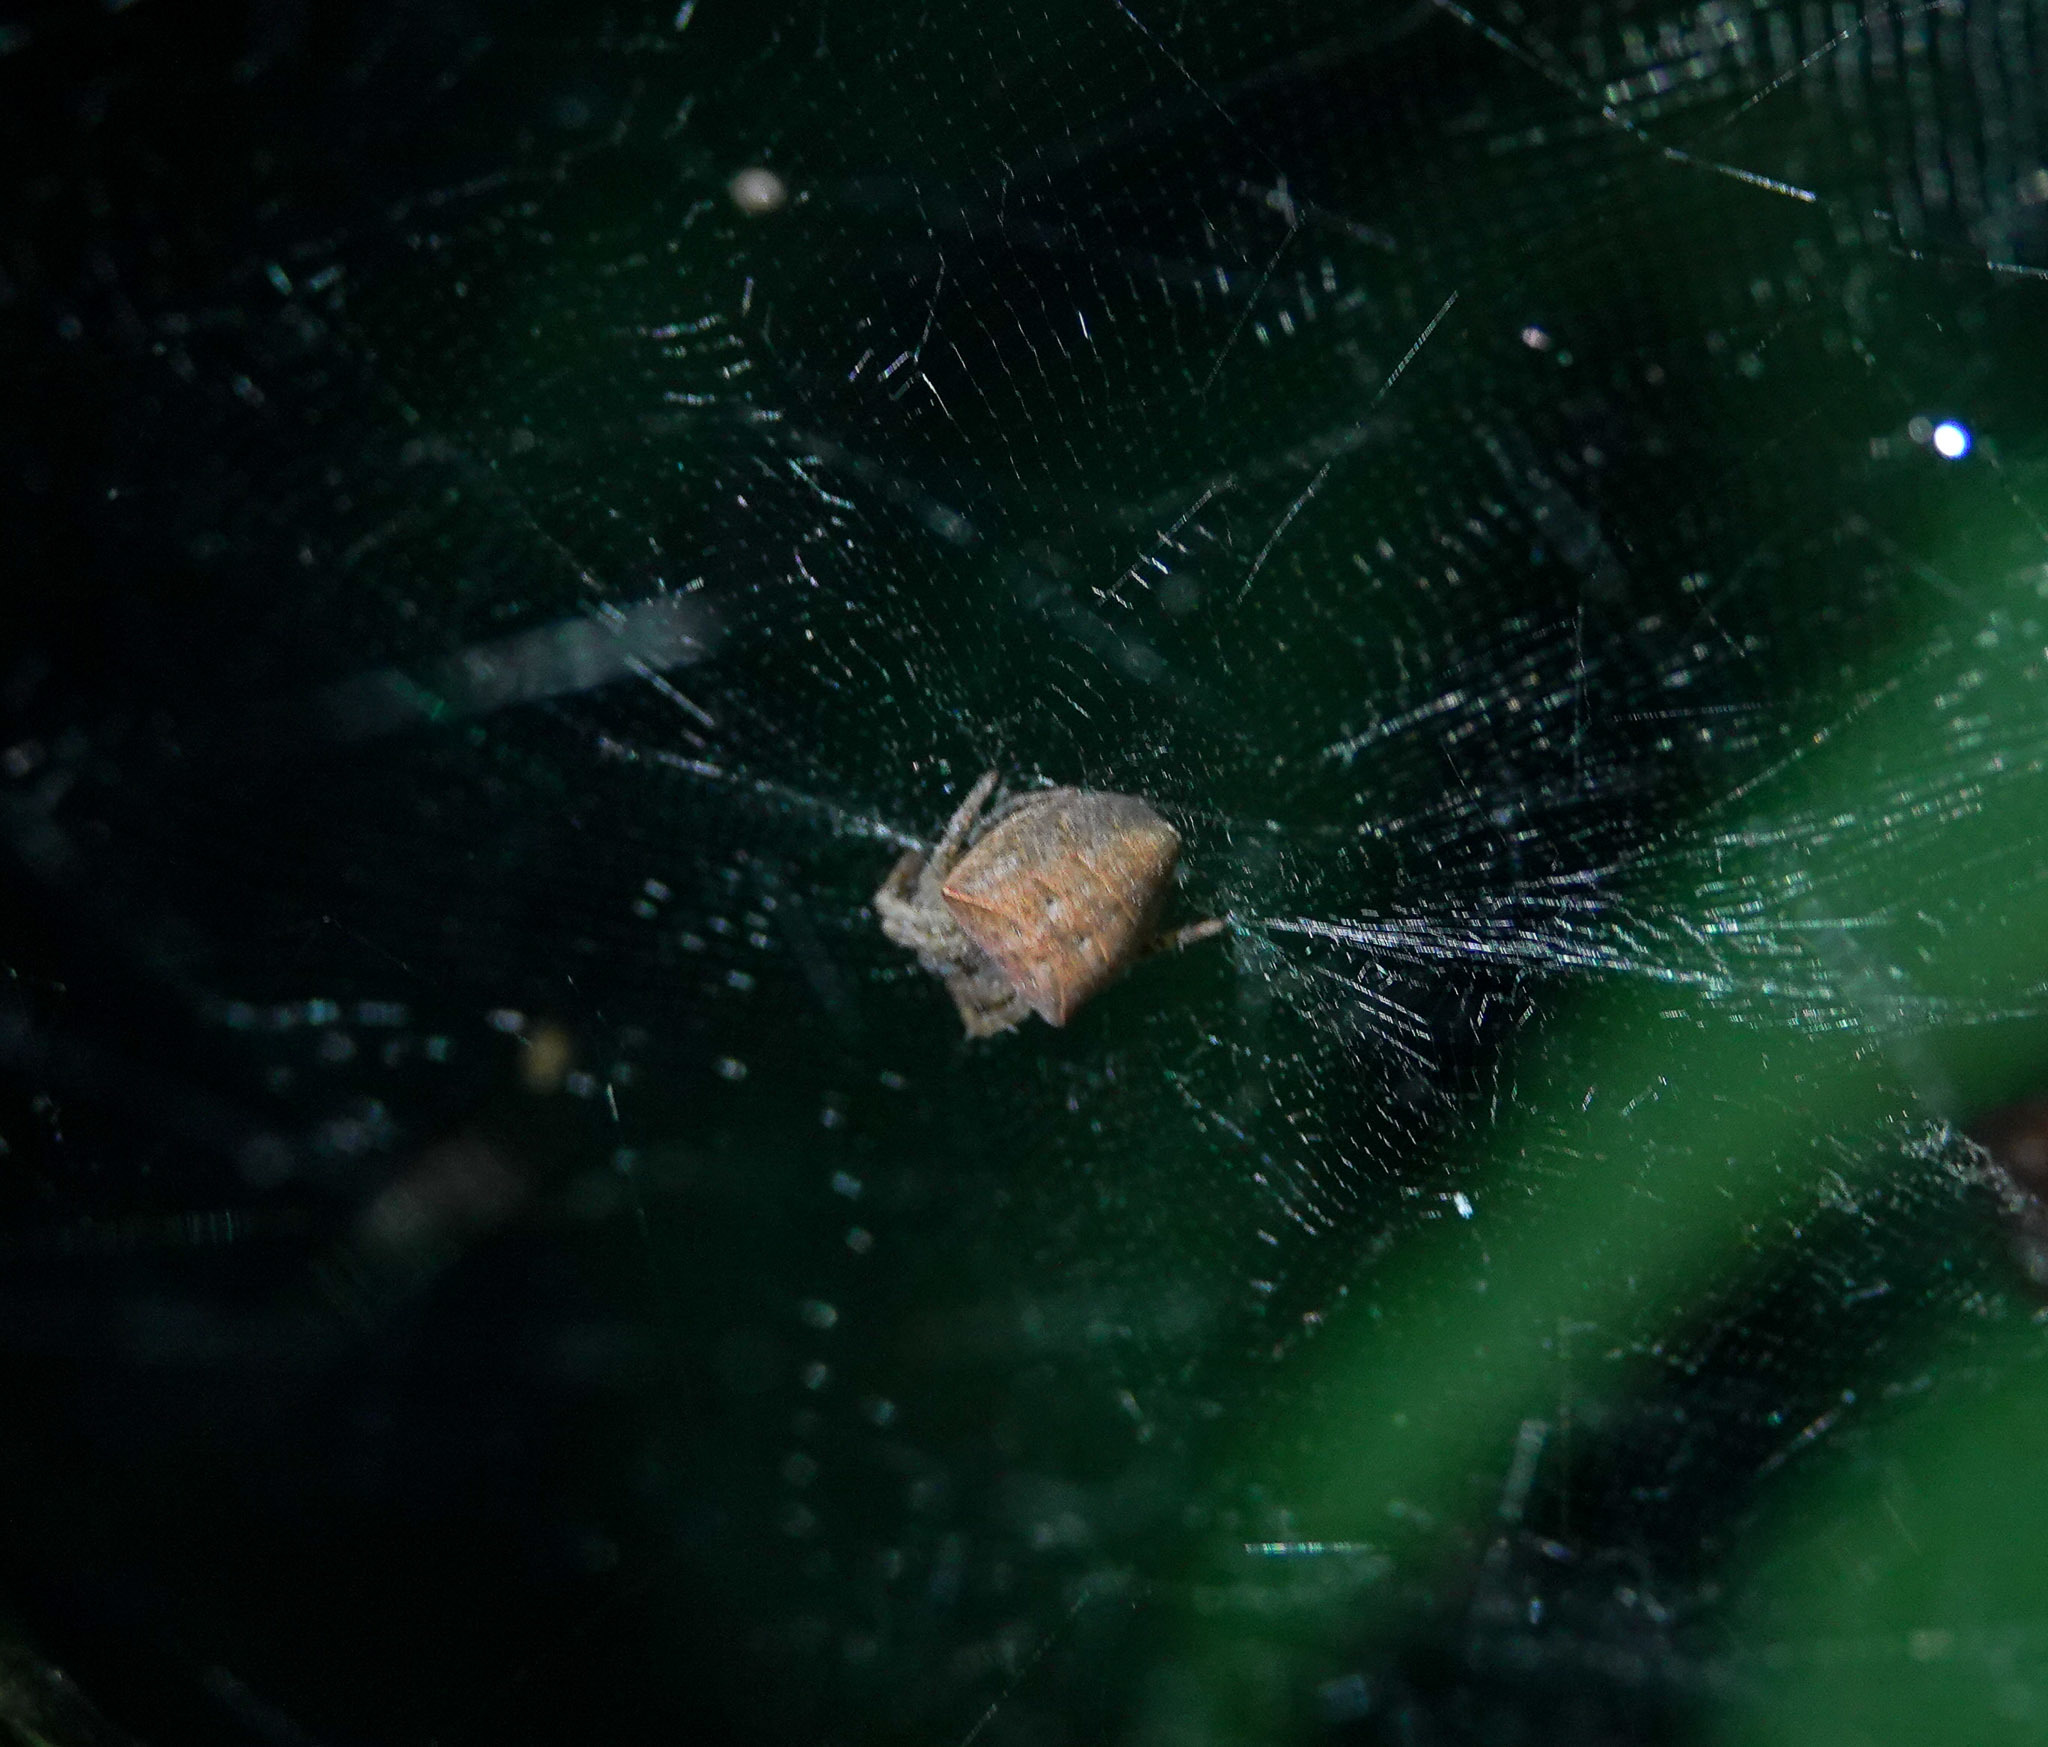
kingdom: Animalia
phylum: Arthropoda
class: Arachnida
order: Araneae
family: Araneidae
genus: Cyrtophora
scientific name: Cyrtophora unicolor
